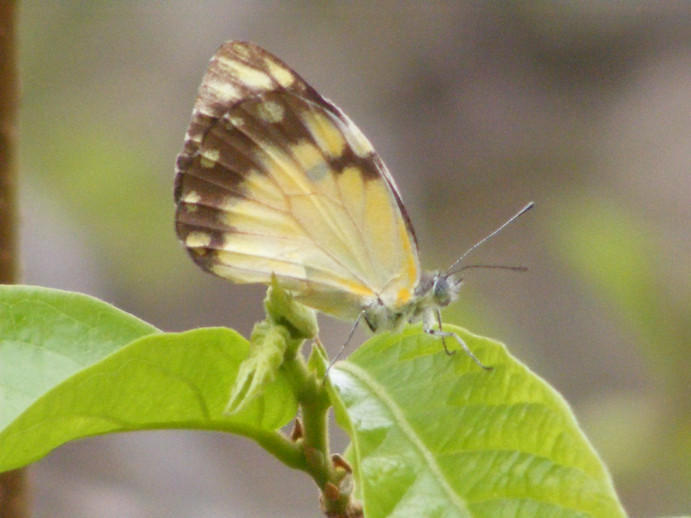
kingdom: Animalia
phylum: Arthropoda
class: Insecta
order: Lepidoptera
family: Pieridae
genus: Belenois
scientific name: Belenois creona
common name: African caper white
